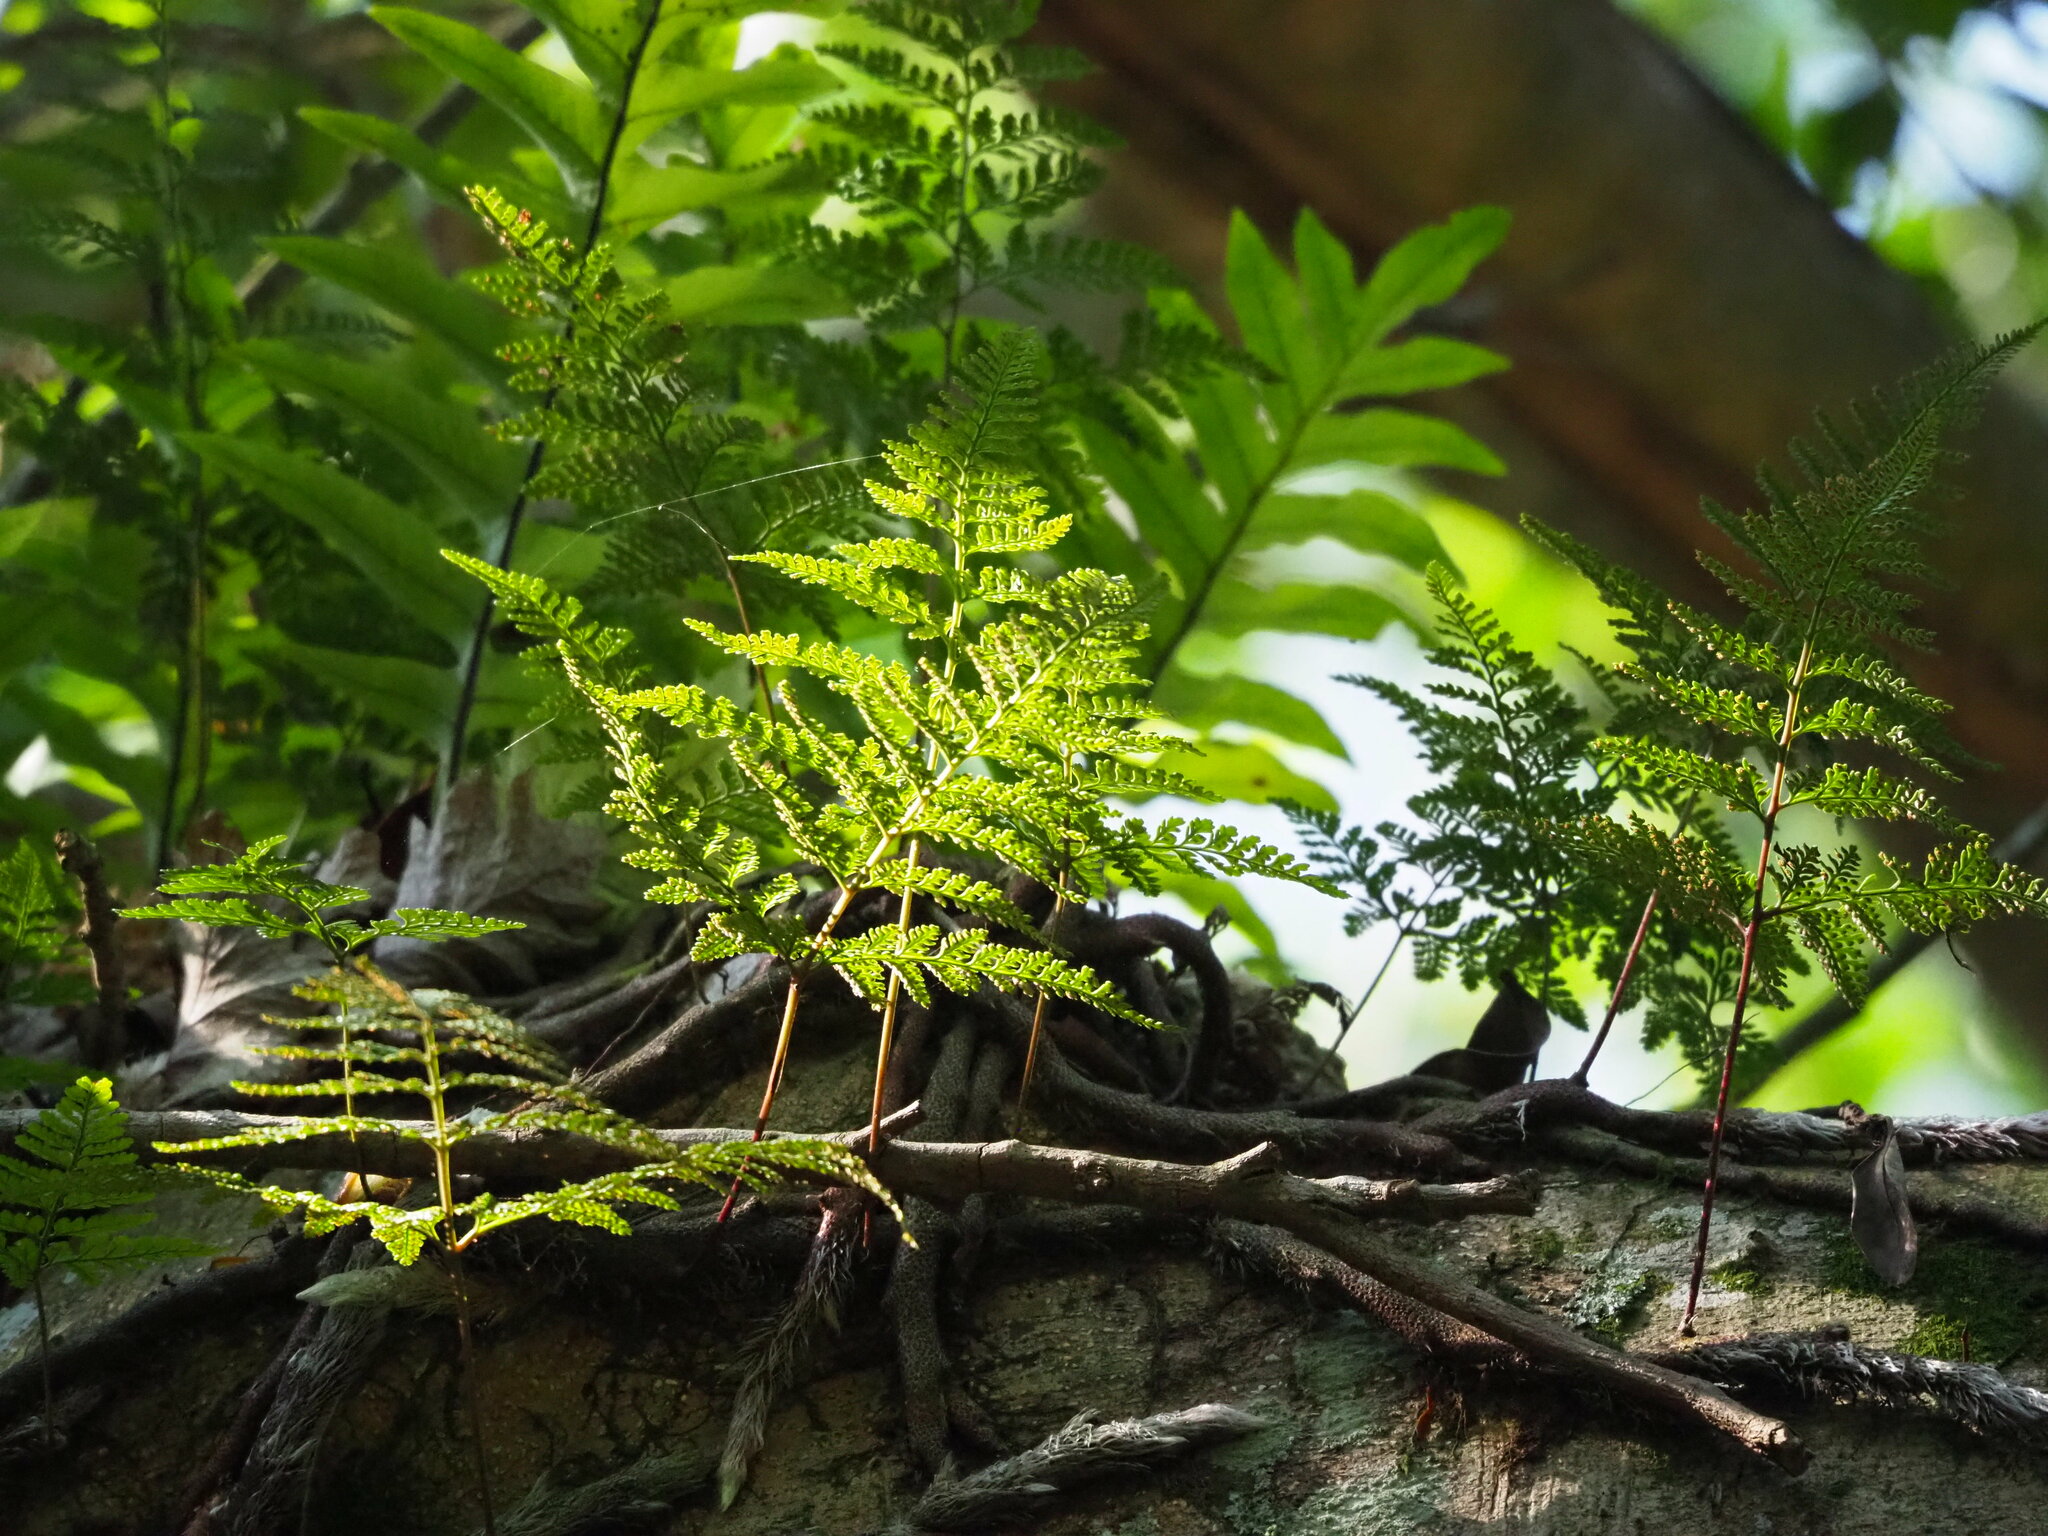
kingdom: Plantae
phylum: Tracheophyta
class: Polypodiopsida
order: Polypodiales
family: Davalliaceae
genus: Davallia
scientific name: Davallia griffithiana
